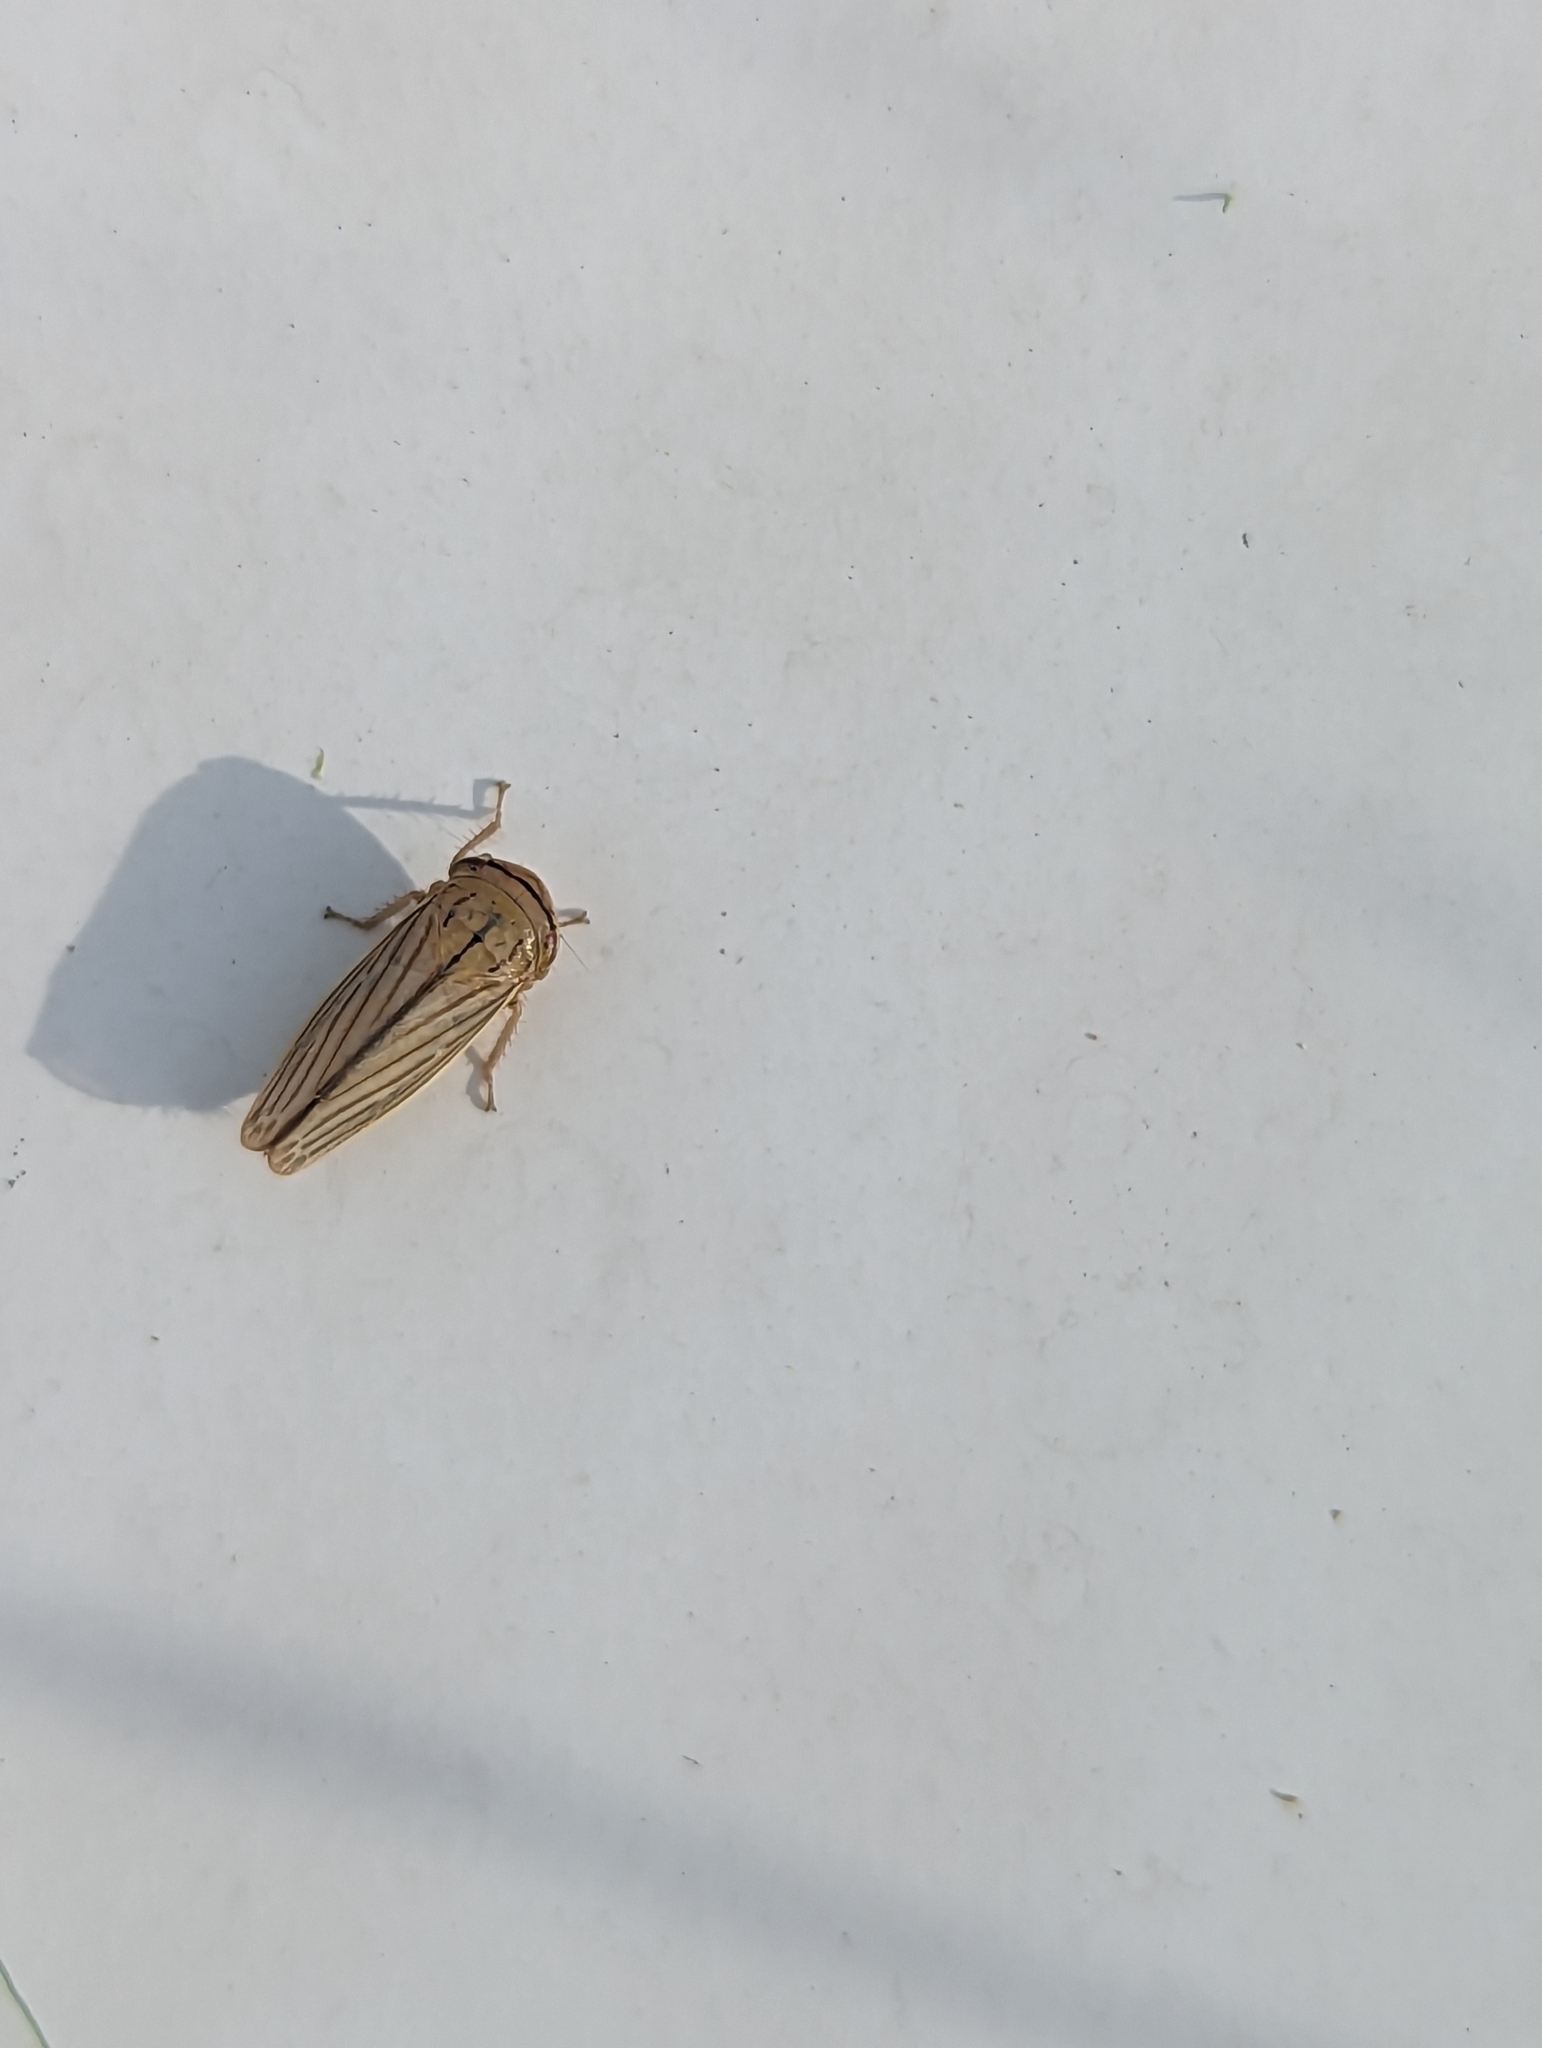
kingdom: Animalia
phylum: Arthropoda
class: Insecta
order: Hemiptera
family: Cicadellidae
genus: Athysanus
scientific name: Athysanus argentarius
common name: Silver leafhopper
